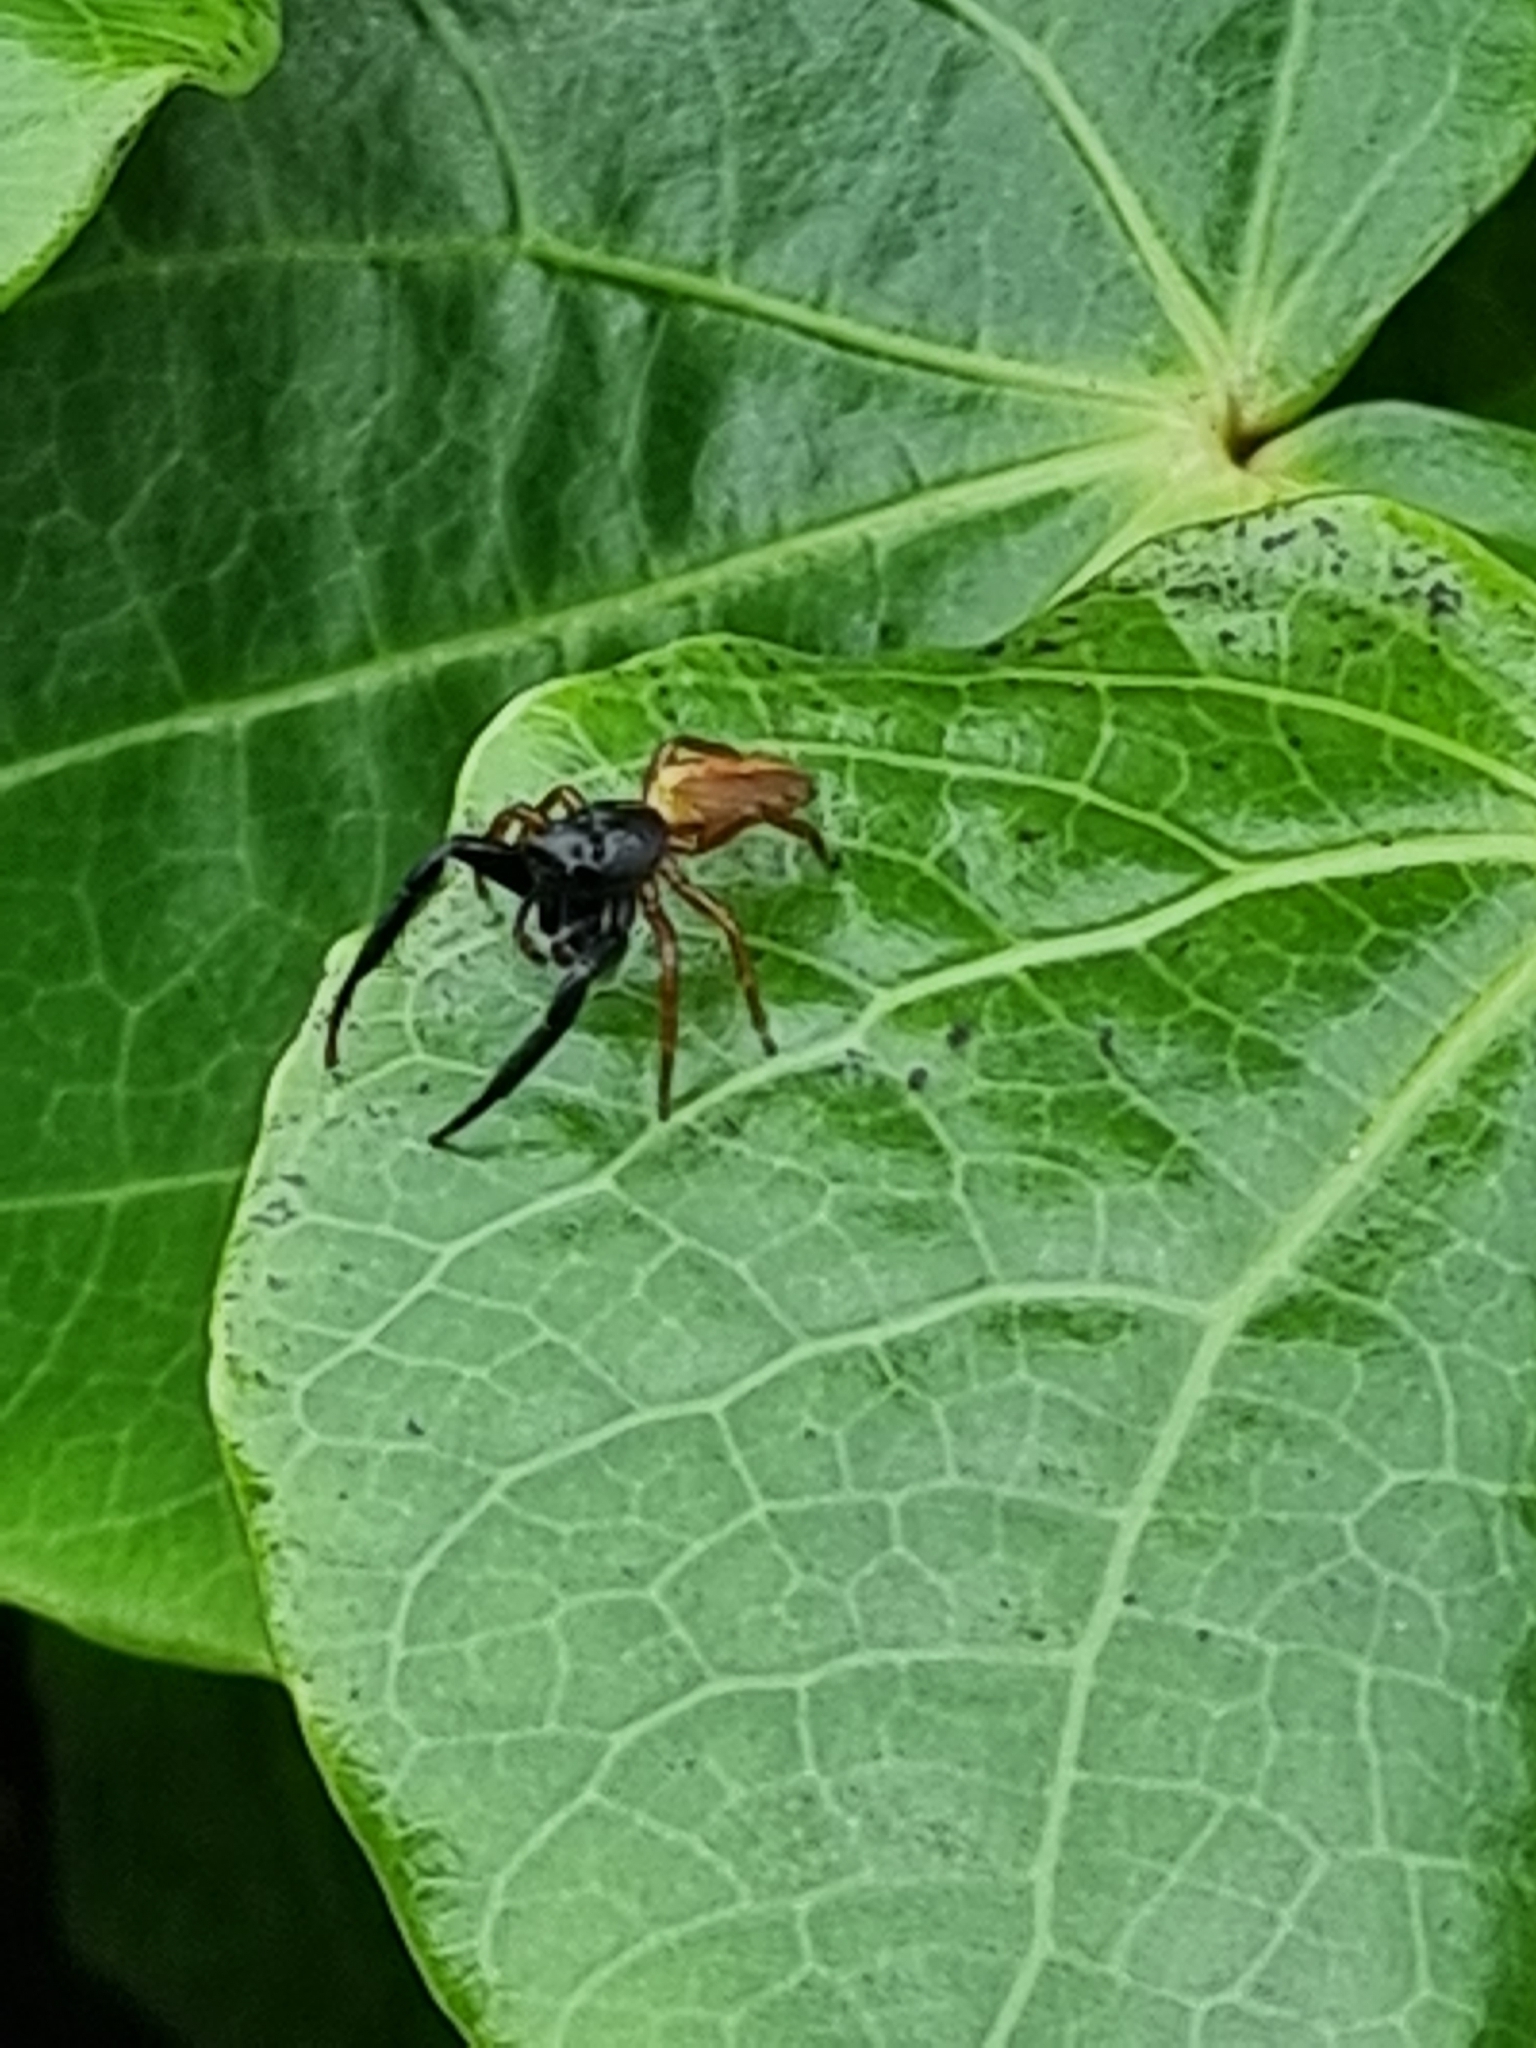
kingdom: Animalia
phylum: Arthropoda
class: Arachnida
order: Araneae
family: Salticidae
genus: Trite
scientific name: Trite planiceps
